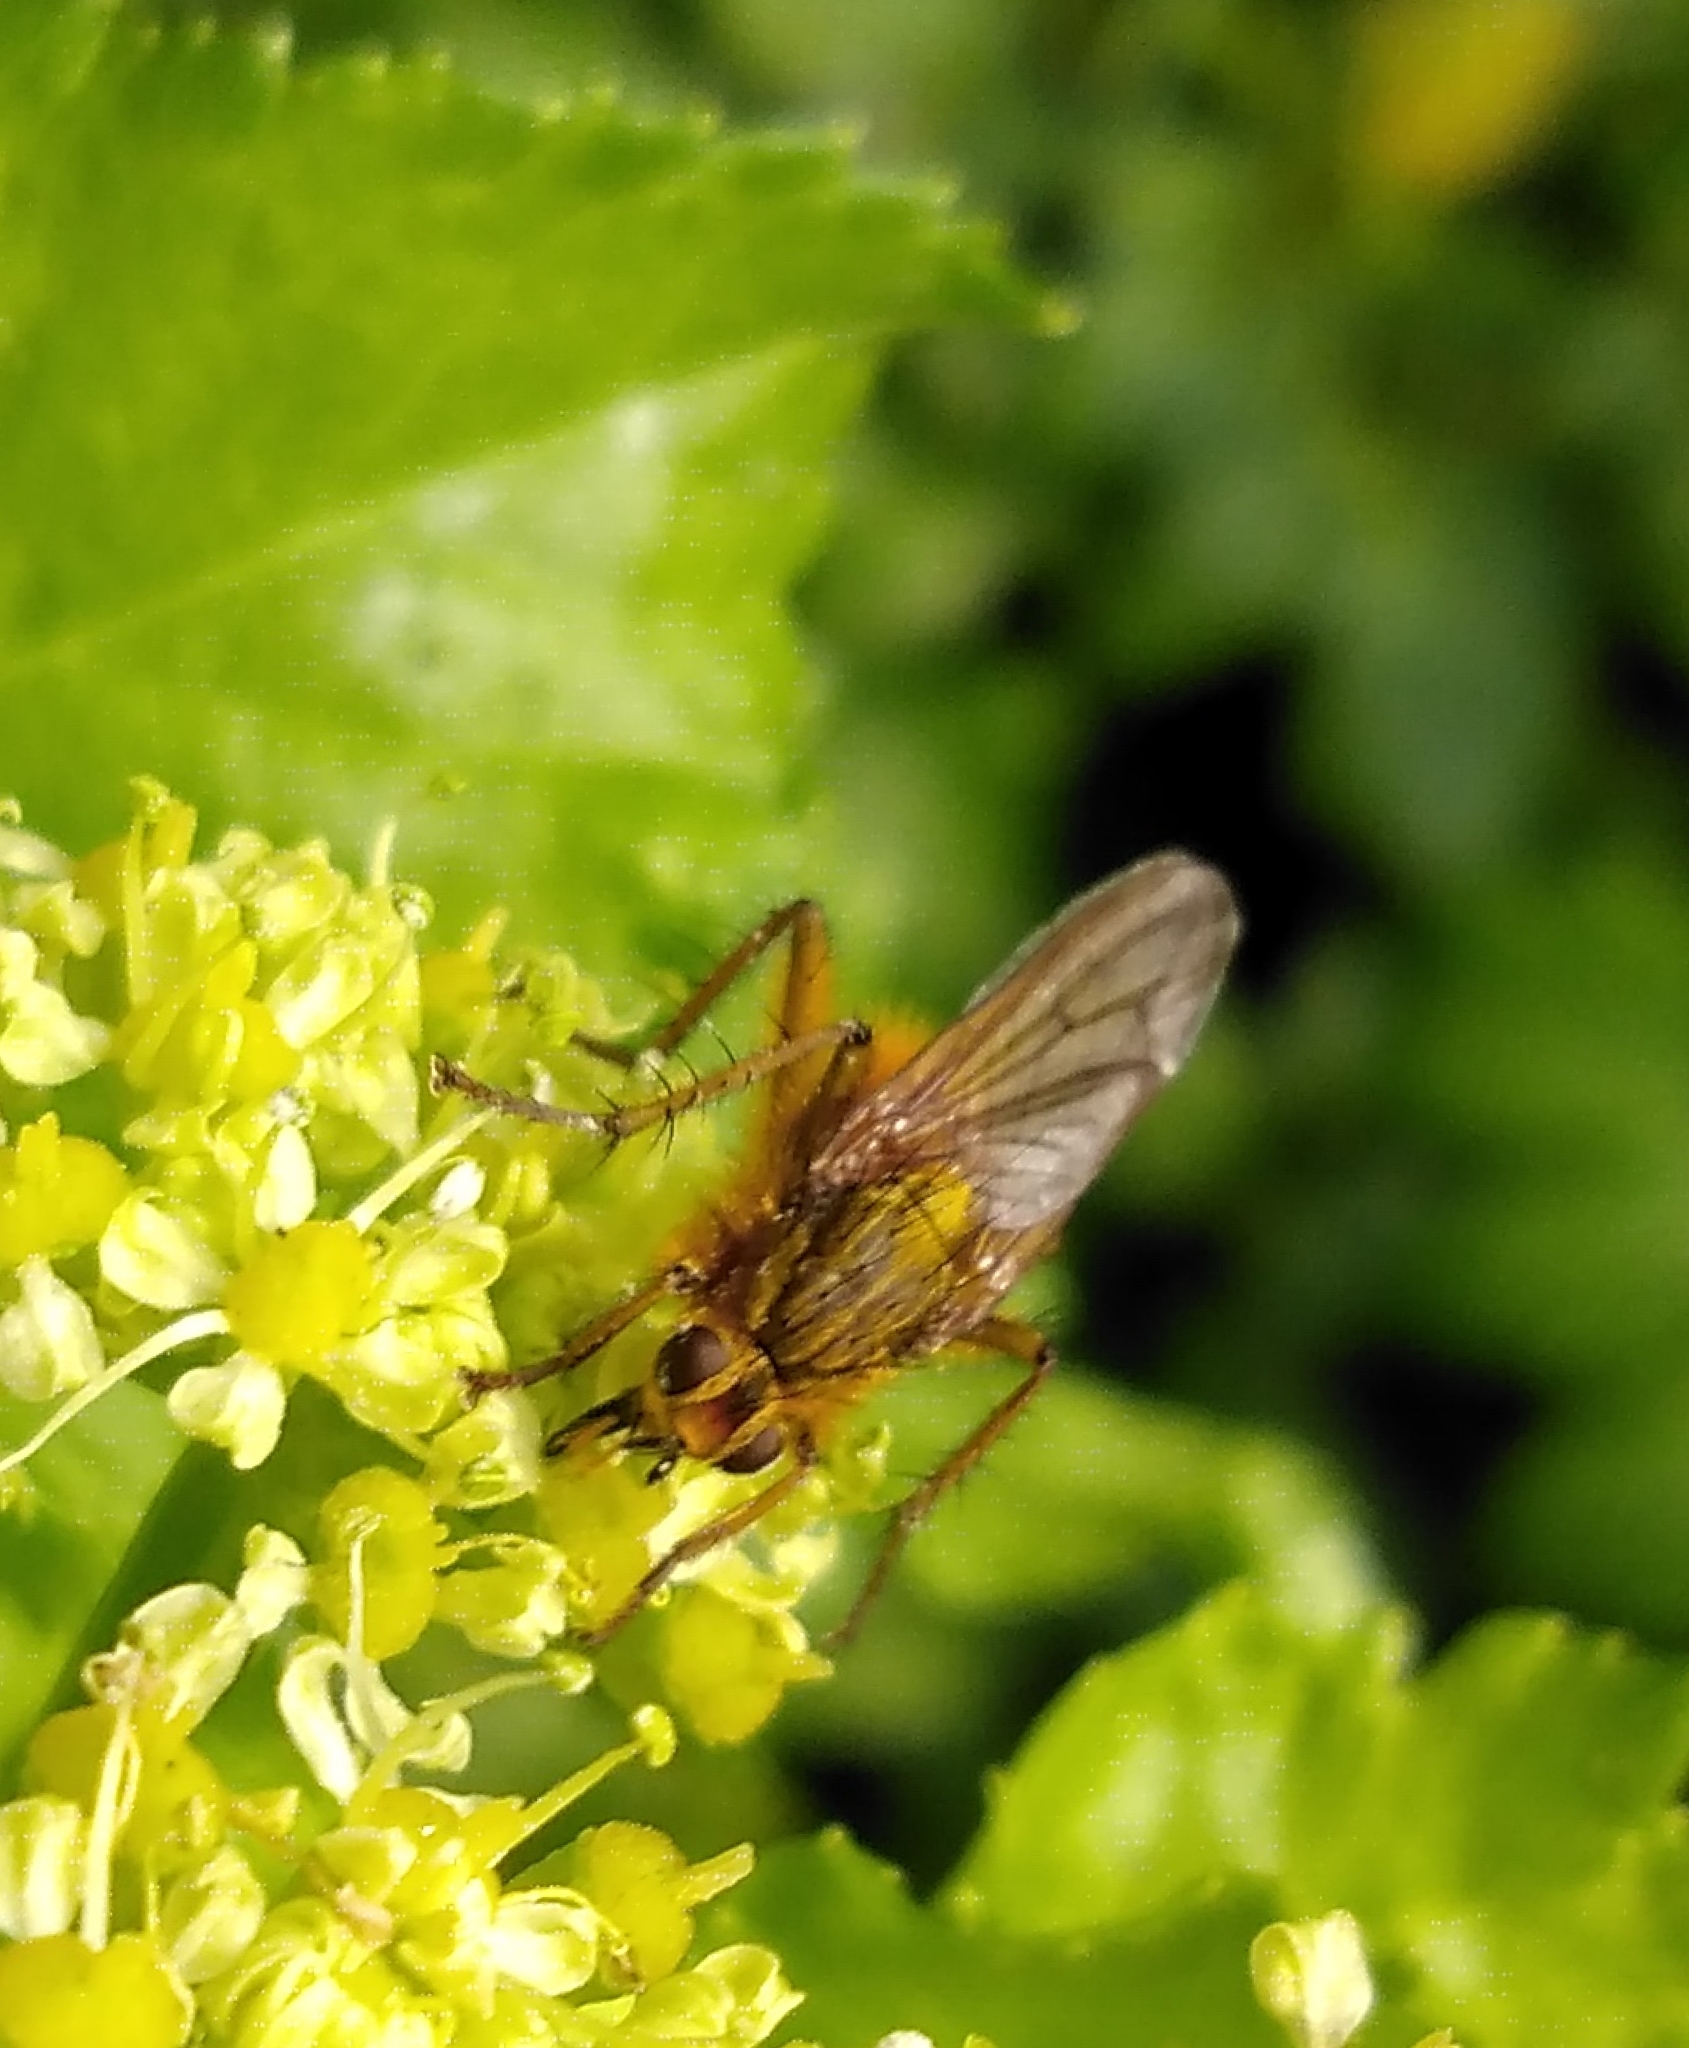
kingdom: Animalia
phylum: Arthropoda
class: Insecta
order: Diptera
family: Scathophagidae
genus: Scathophaga
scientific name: Scathophaga stercoraria
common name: Yellow dung fly
